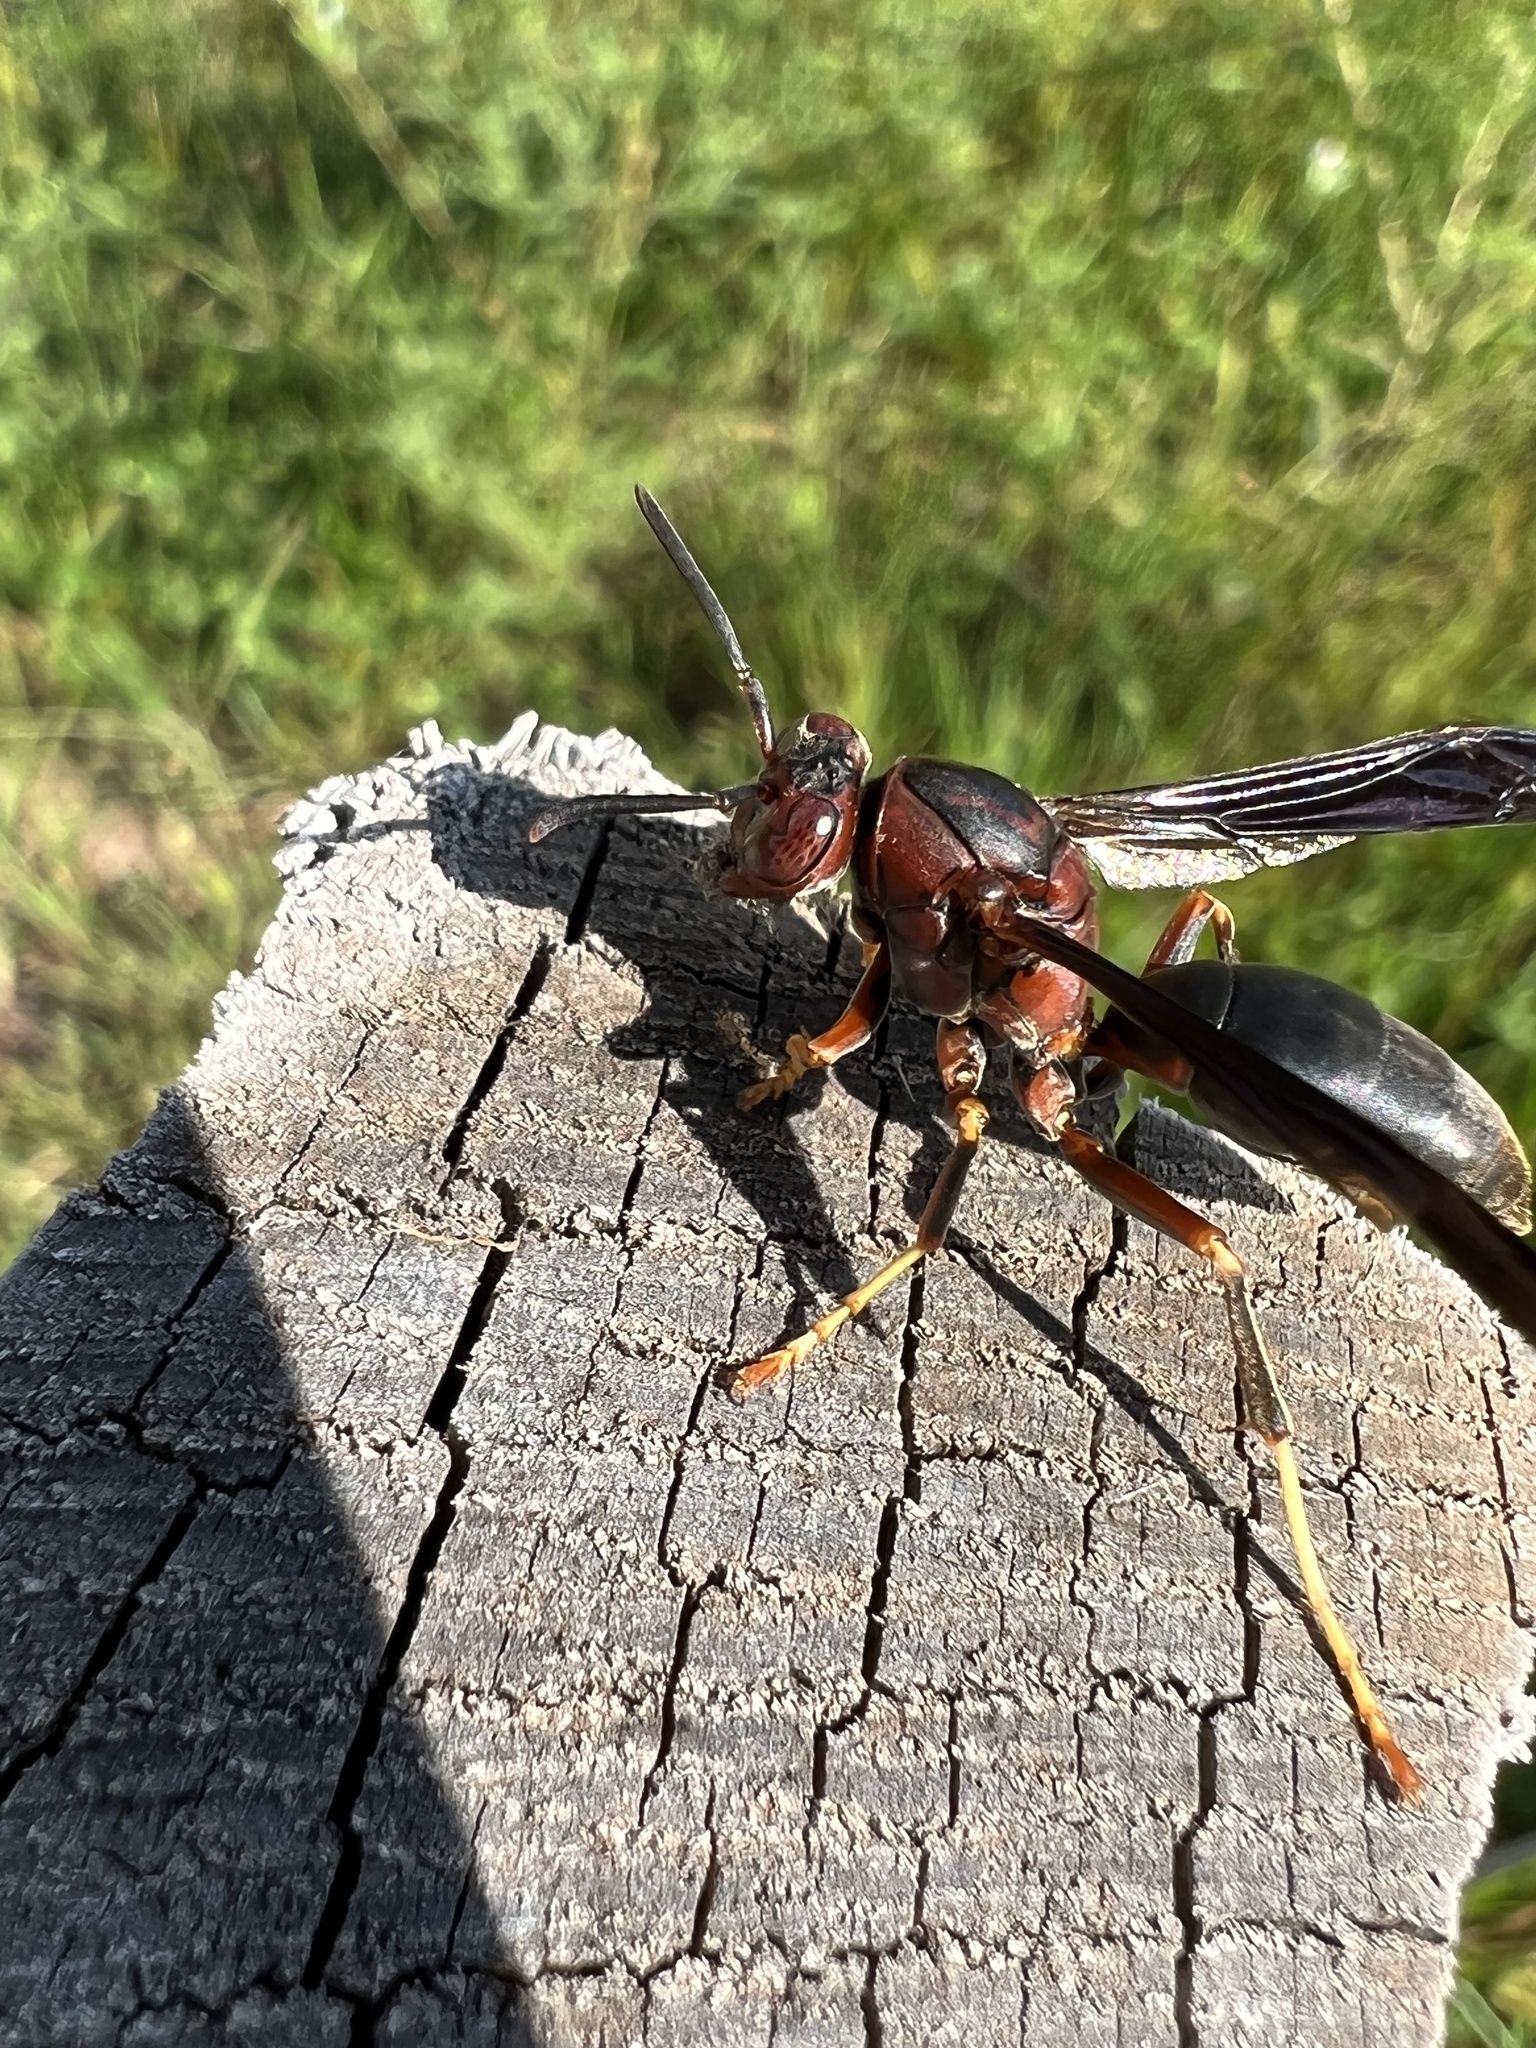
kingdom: Animalia
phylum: Arthropoda
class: Insecta
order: Hymenoptera
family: Eumenidae
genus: Polistes
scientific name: Polistes metricus
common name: Metric paper wasp
